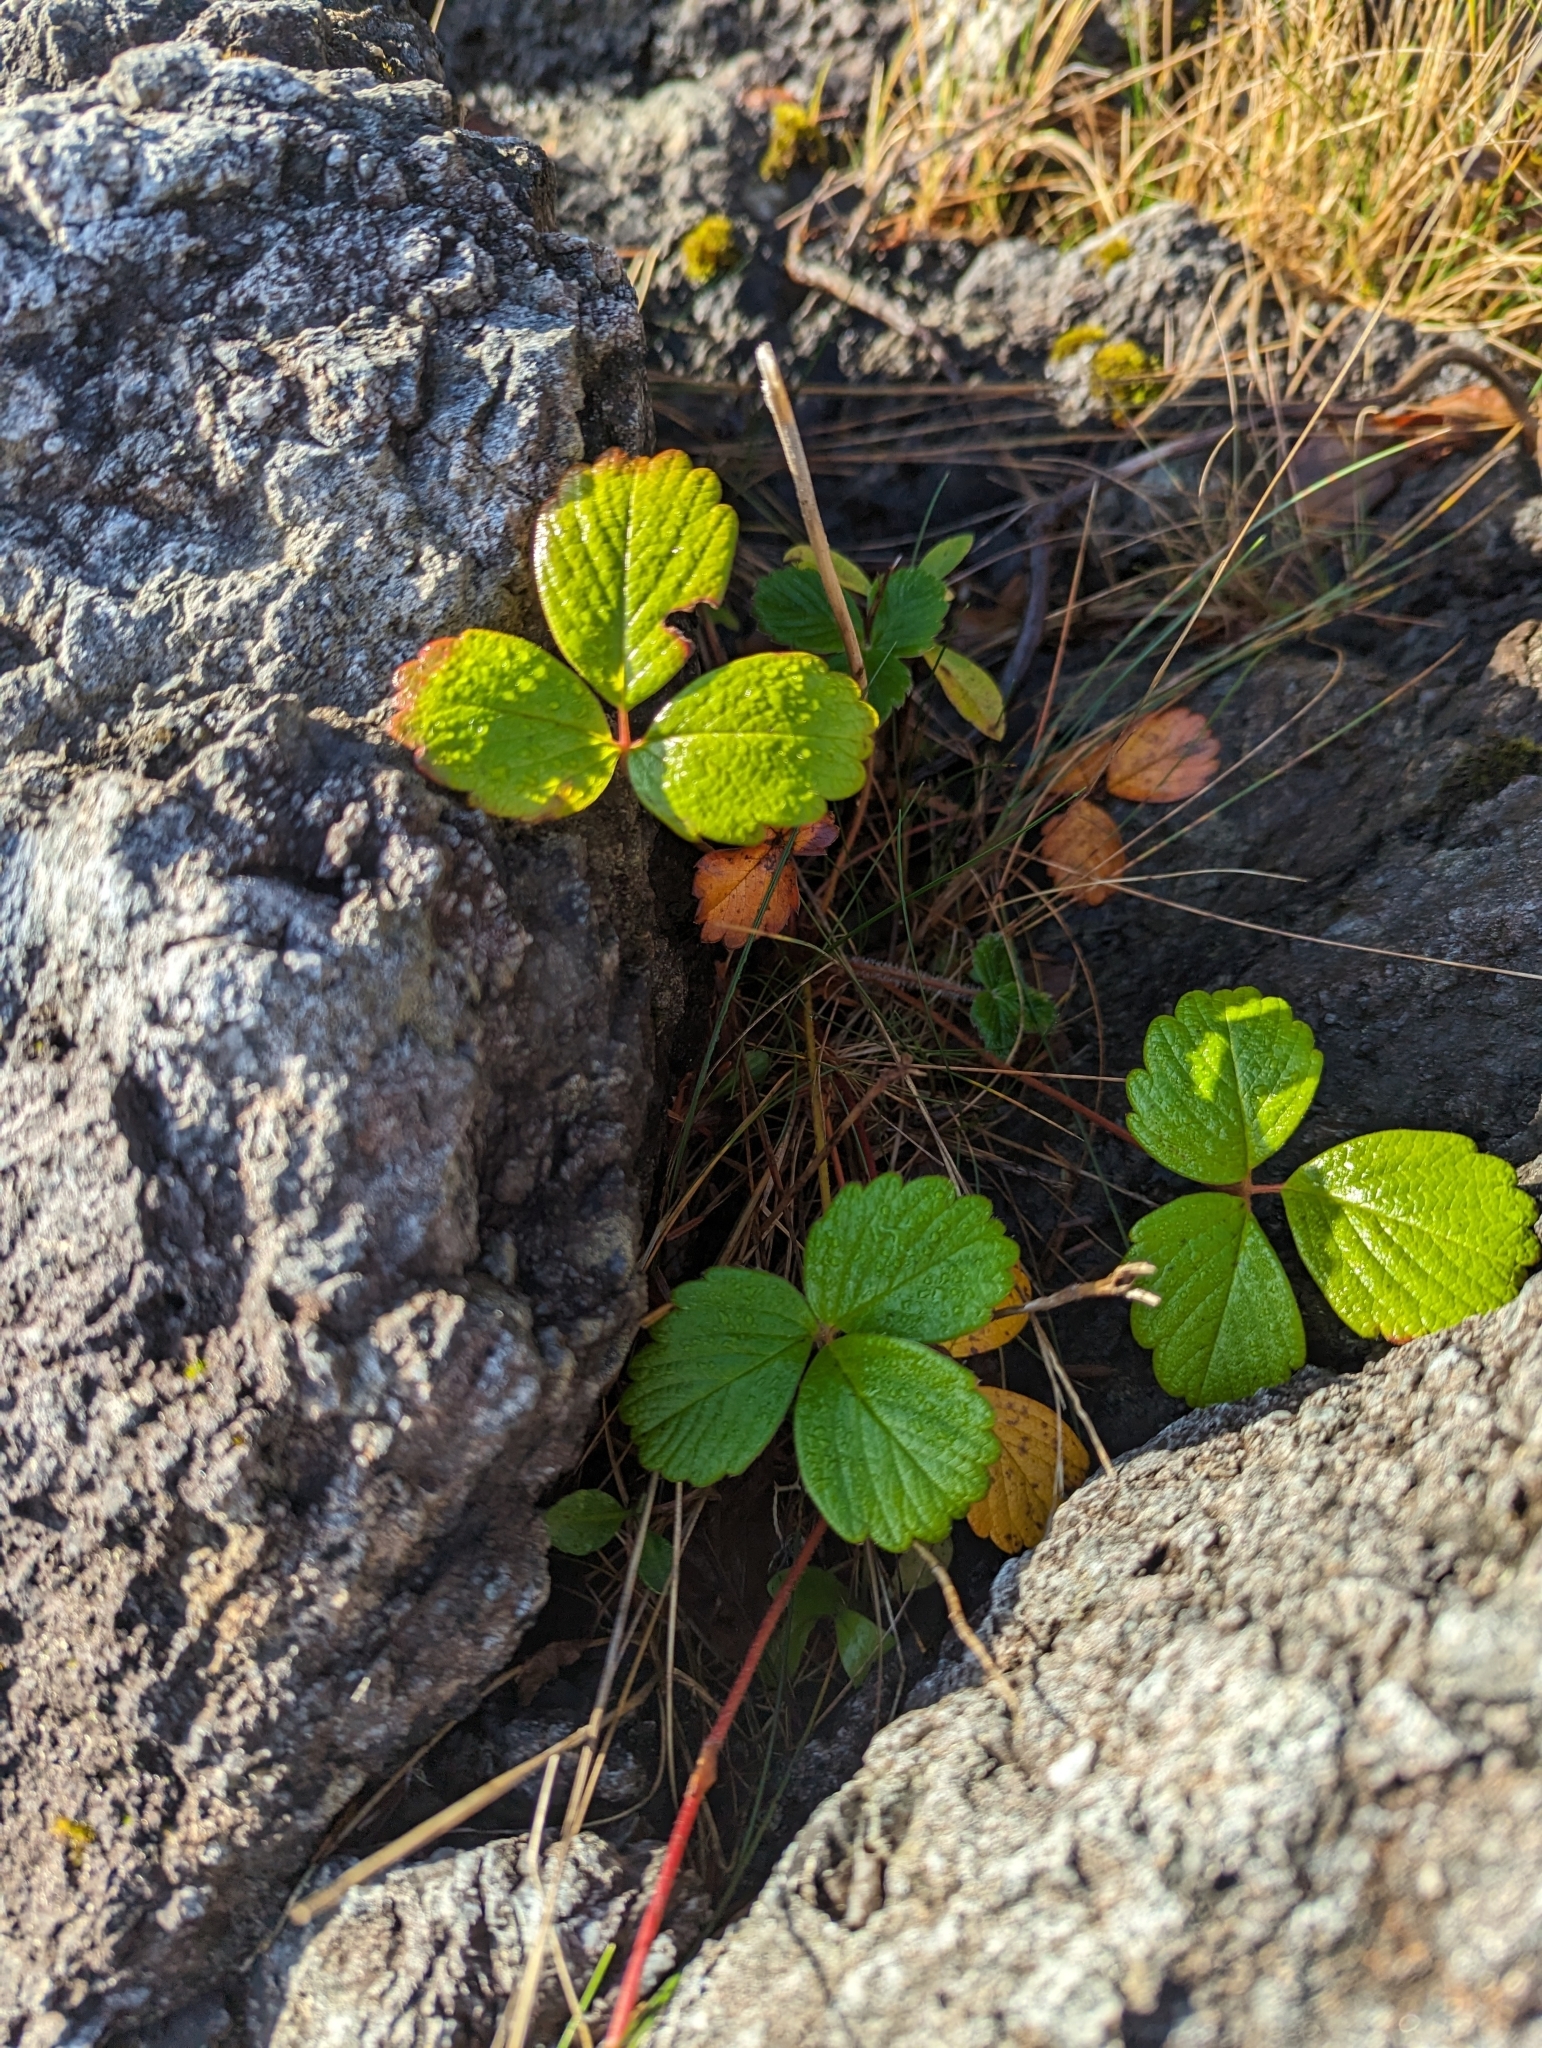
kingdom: Plantae
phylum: Tracheophyta
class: Magnoliopsida
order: Rosales
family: Rosaceae
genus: Fragaria
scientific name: Fragaria chiloensis
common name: Beach strawberry
